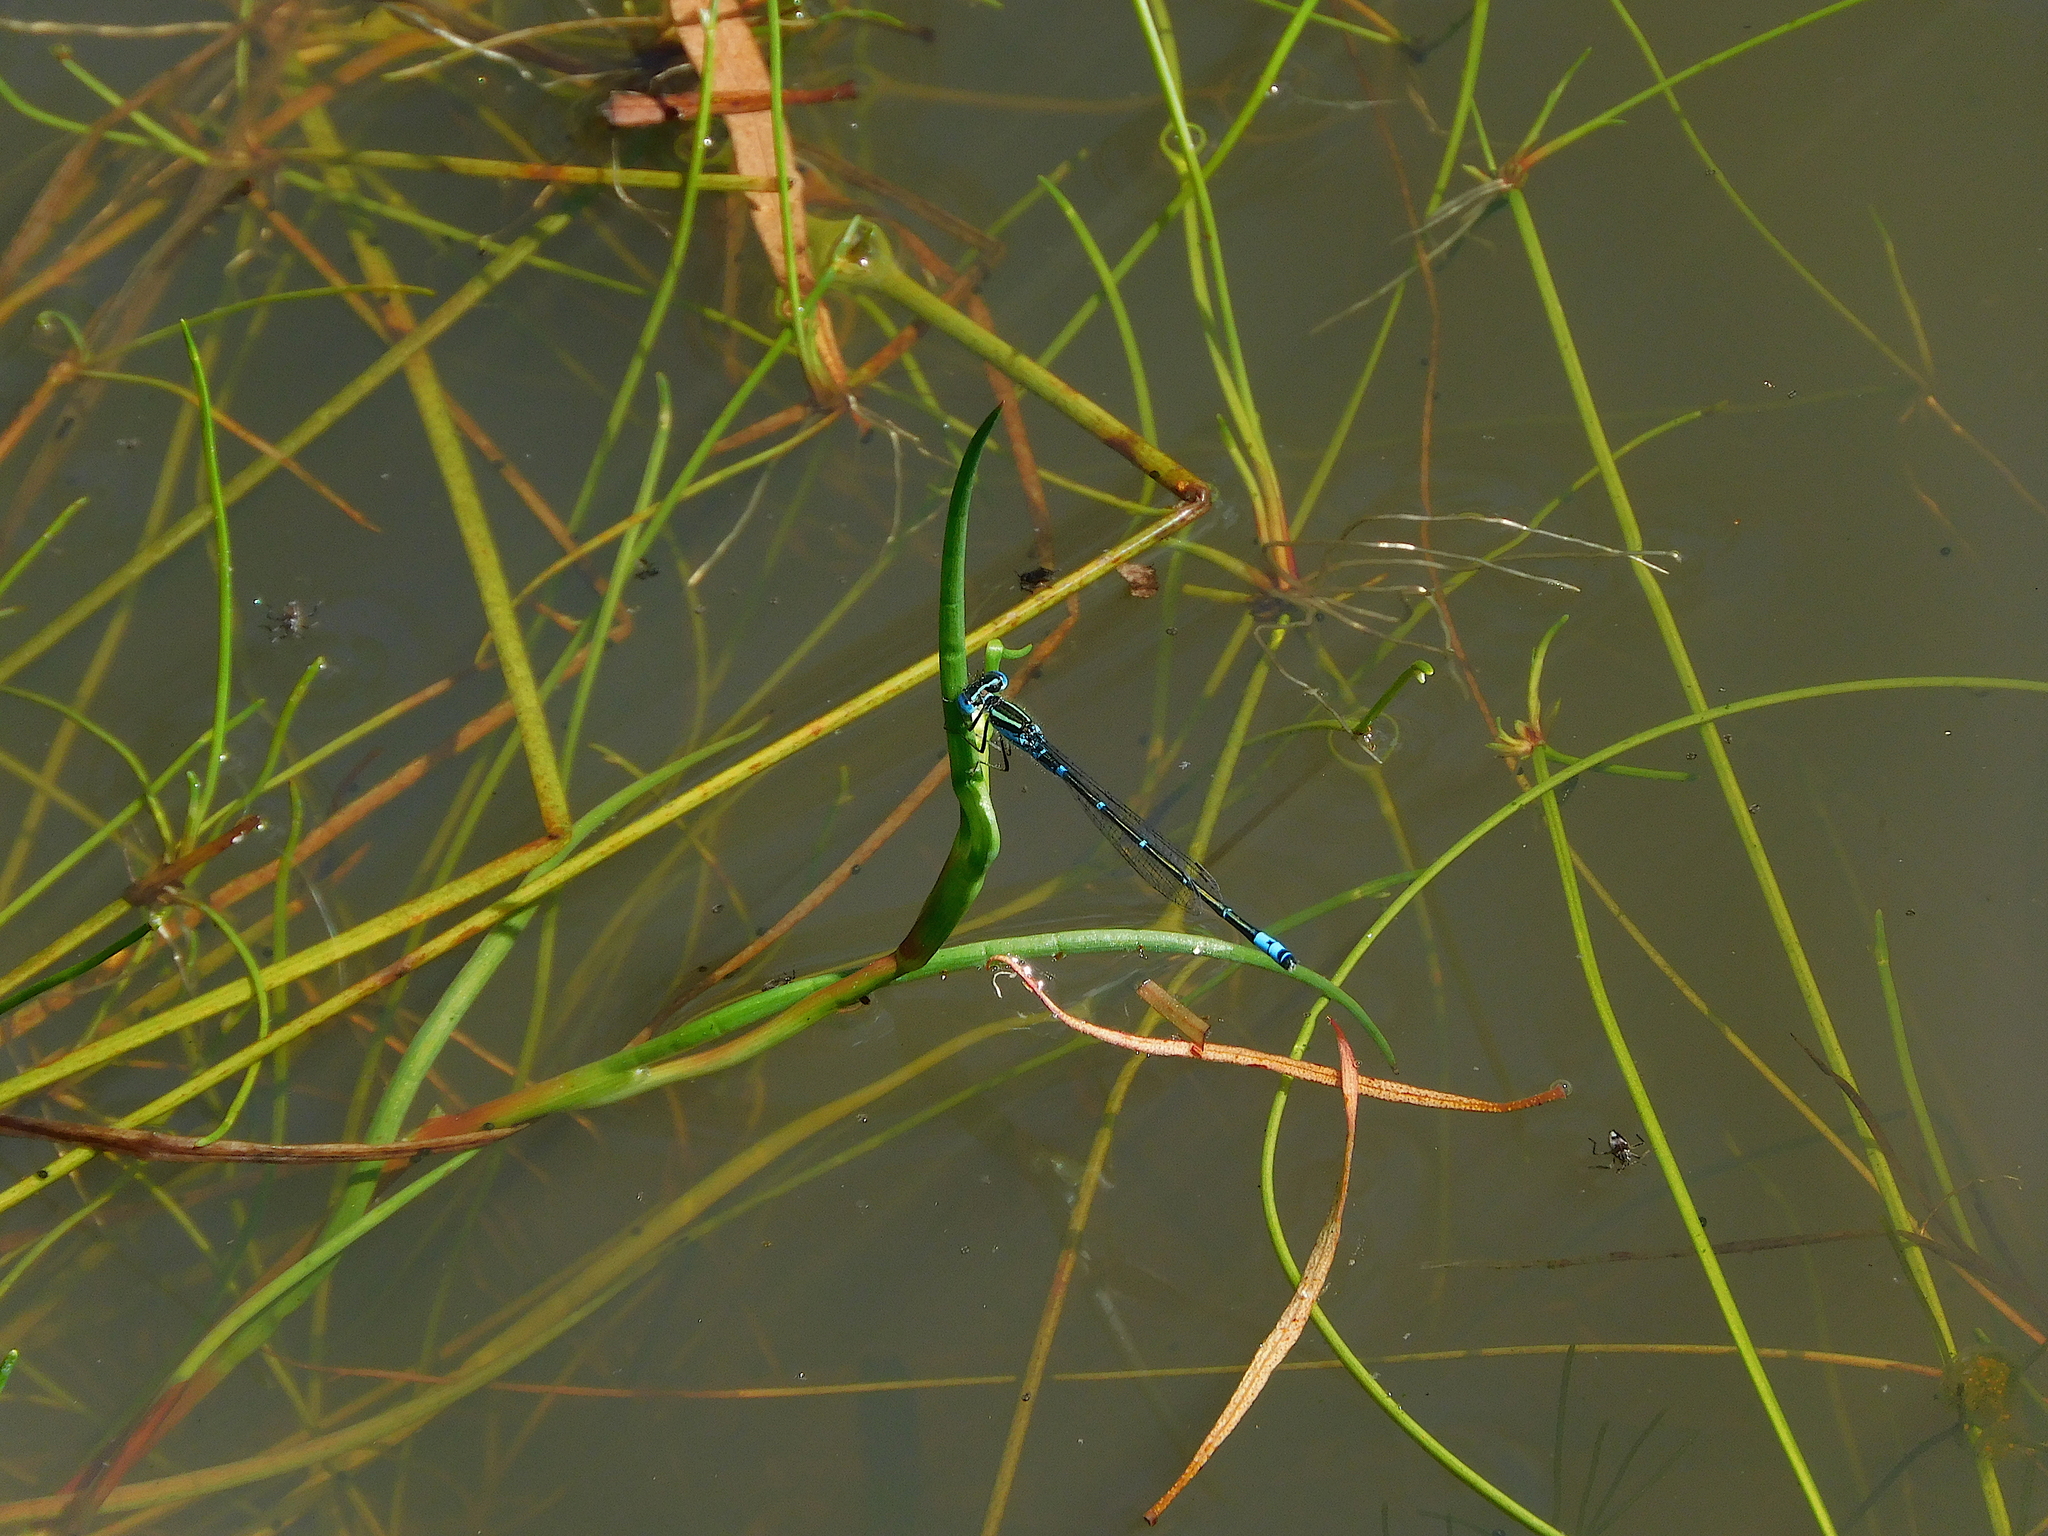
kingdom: Animalia
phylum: Arthropoda
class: Insecta
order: Odonata
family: Coenagrionidae
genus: Austroagrion
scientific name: Austroagrion watsoni
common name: Eastern billabongfly
